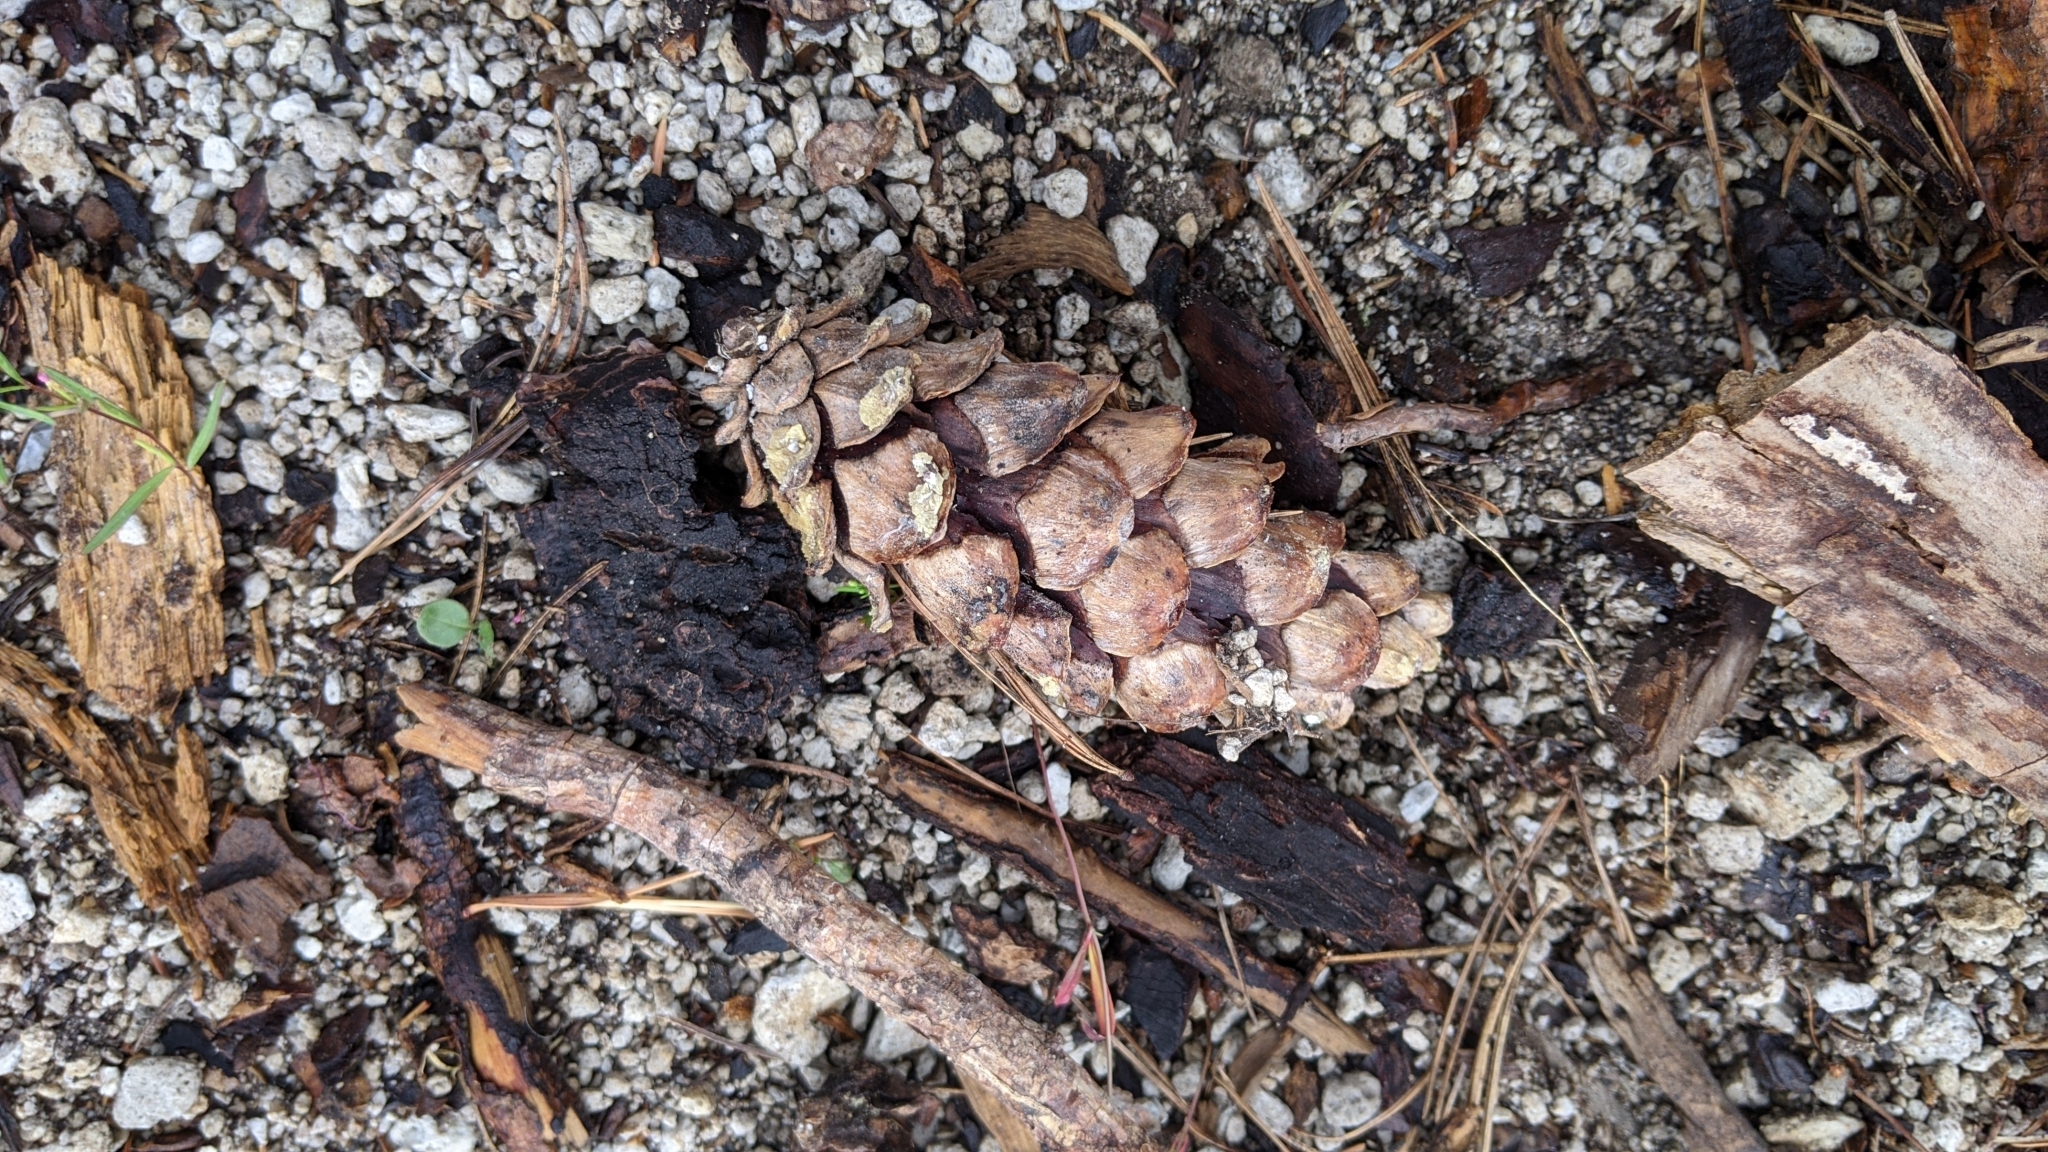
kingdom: Plantae
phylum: Tracheophyta
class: Pinopsida
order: Pinales
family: Pinaceae
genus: Pinus
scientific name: Pinus monticola
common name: Western white pine
